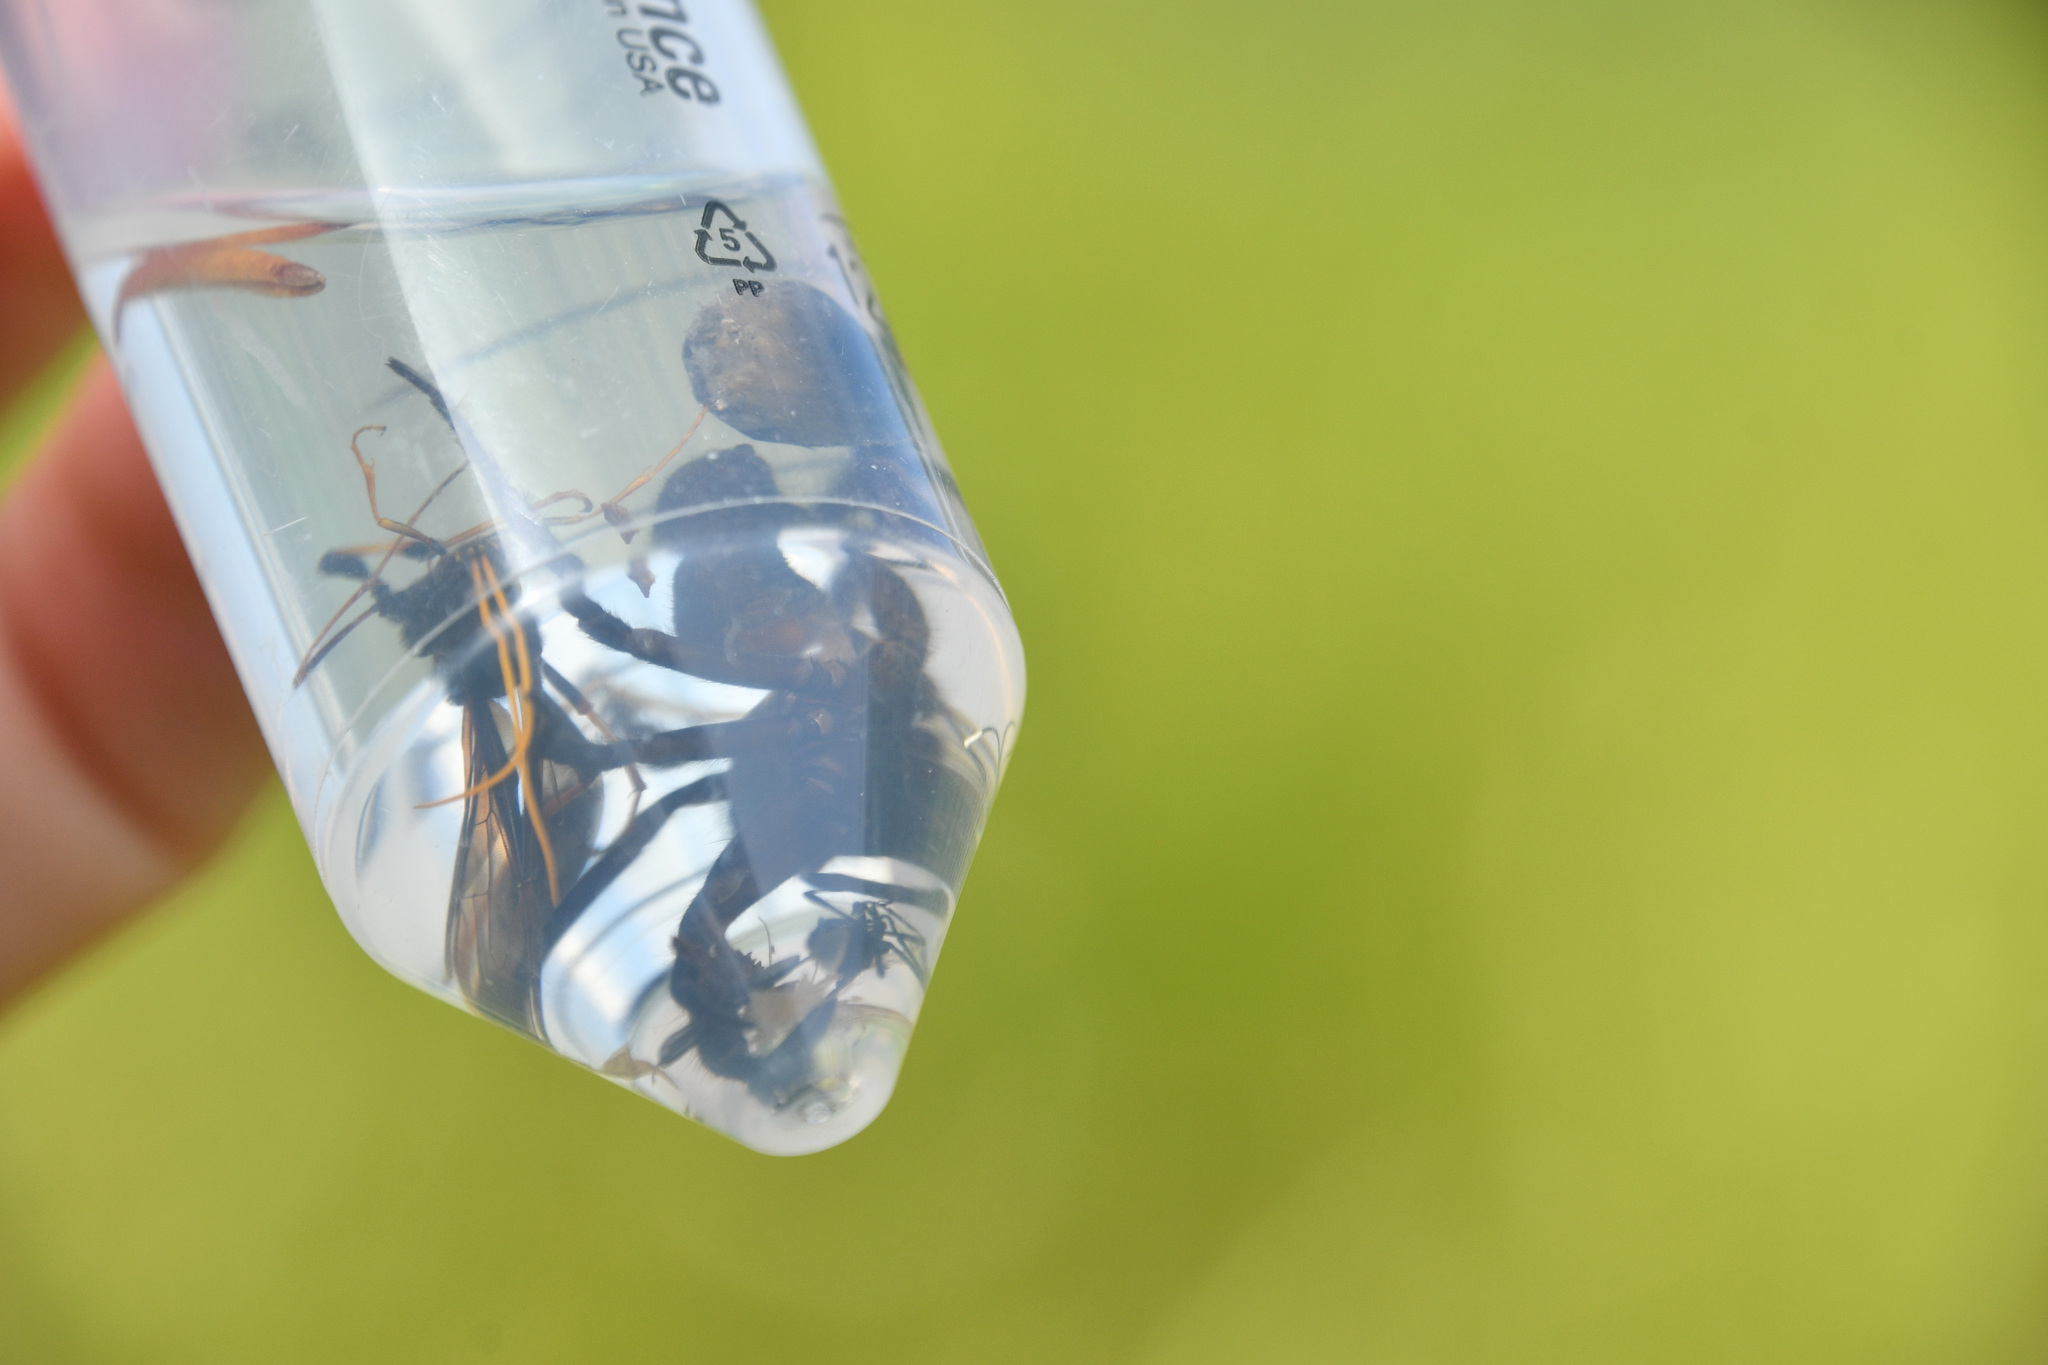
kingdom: Animalia
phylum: Arthropoda
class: Arachnida
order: Araneae
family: Lycosidae
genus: Arctosa
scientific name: Arctosa raptor
